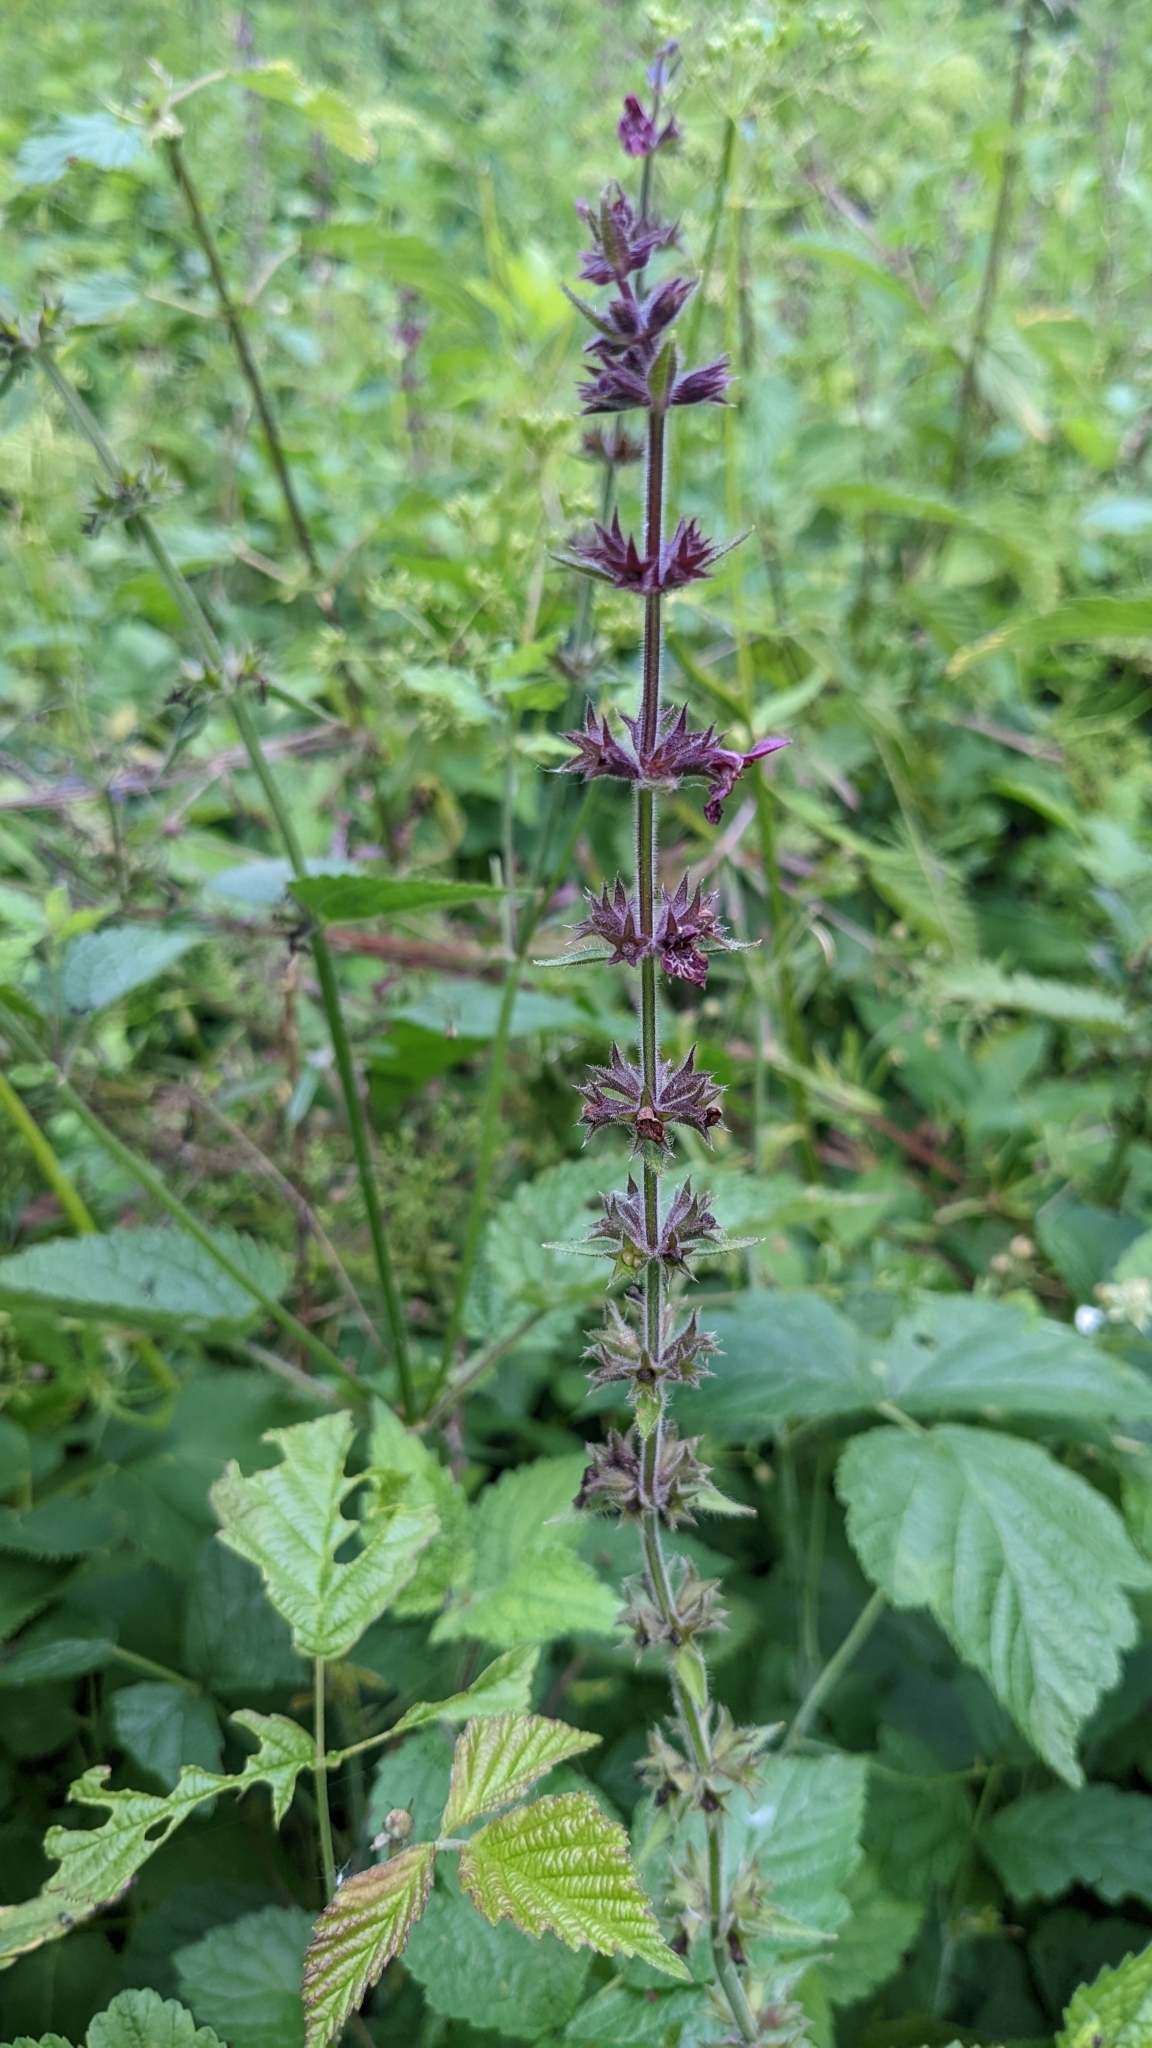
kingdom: Plantae
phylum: Tracheophyta
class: Magnoliopsida
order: Lamiales
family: Lamiaceae
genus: Stachys
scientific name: Stachys sylvatica
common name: Hedge woundwort
